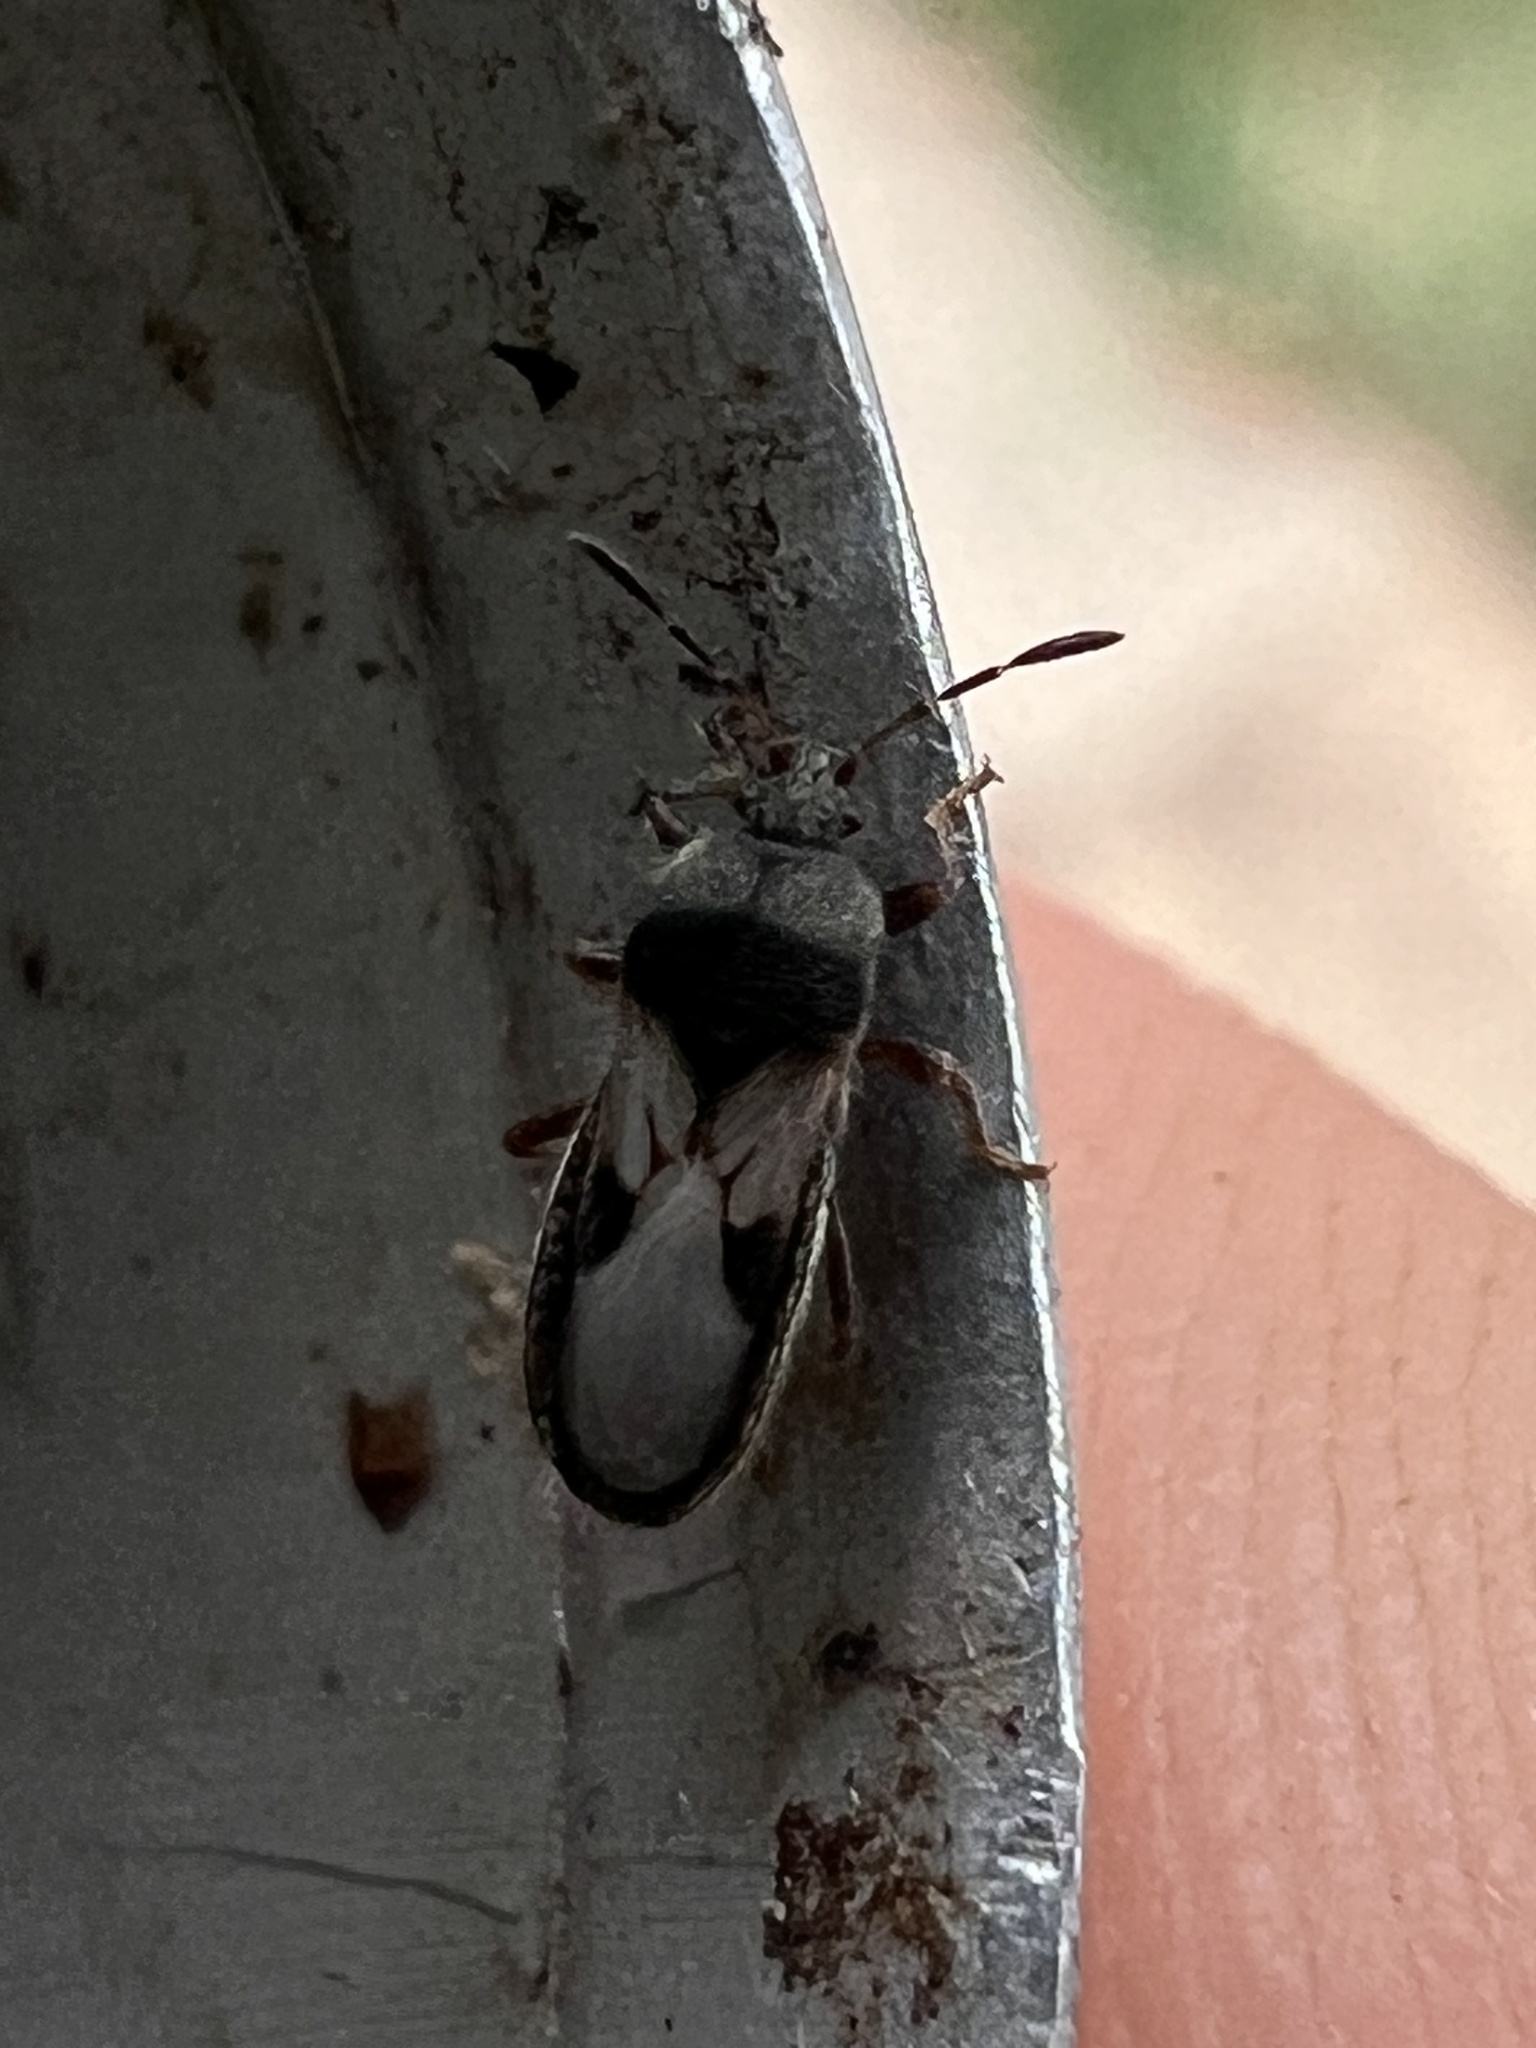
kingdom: Animalia
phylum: Arthropoda
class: Insecta
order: Hemiptera
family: Blissidae
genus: Blissus
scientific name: Blissus leucopterus
